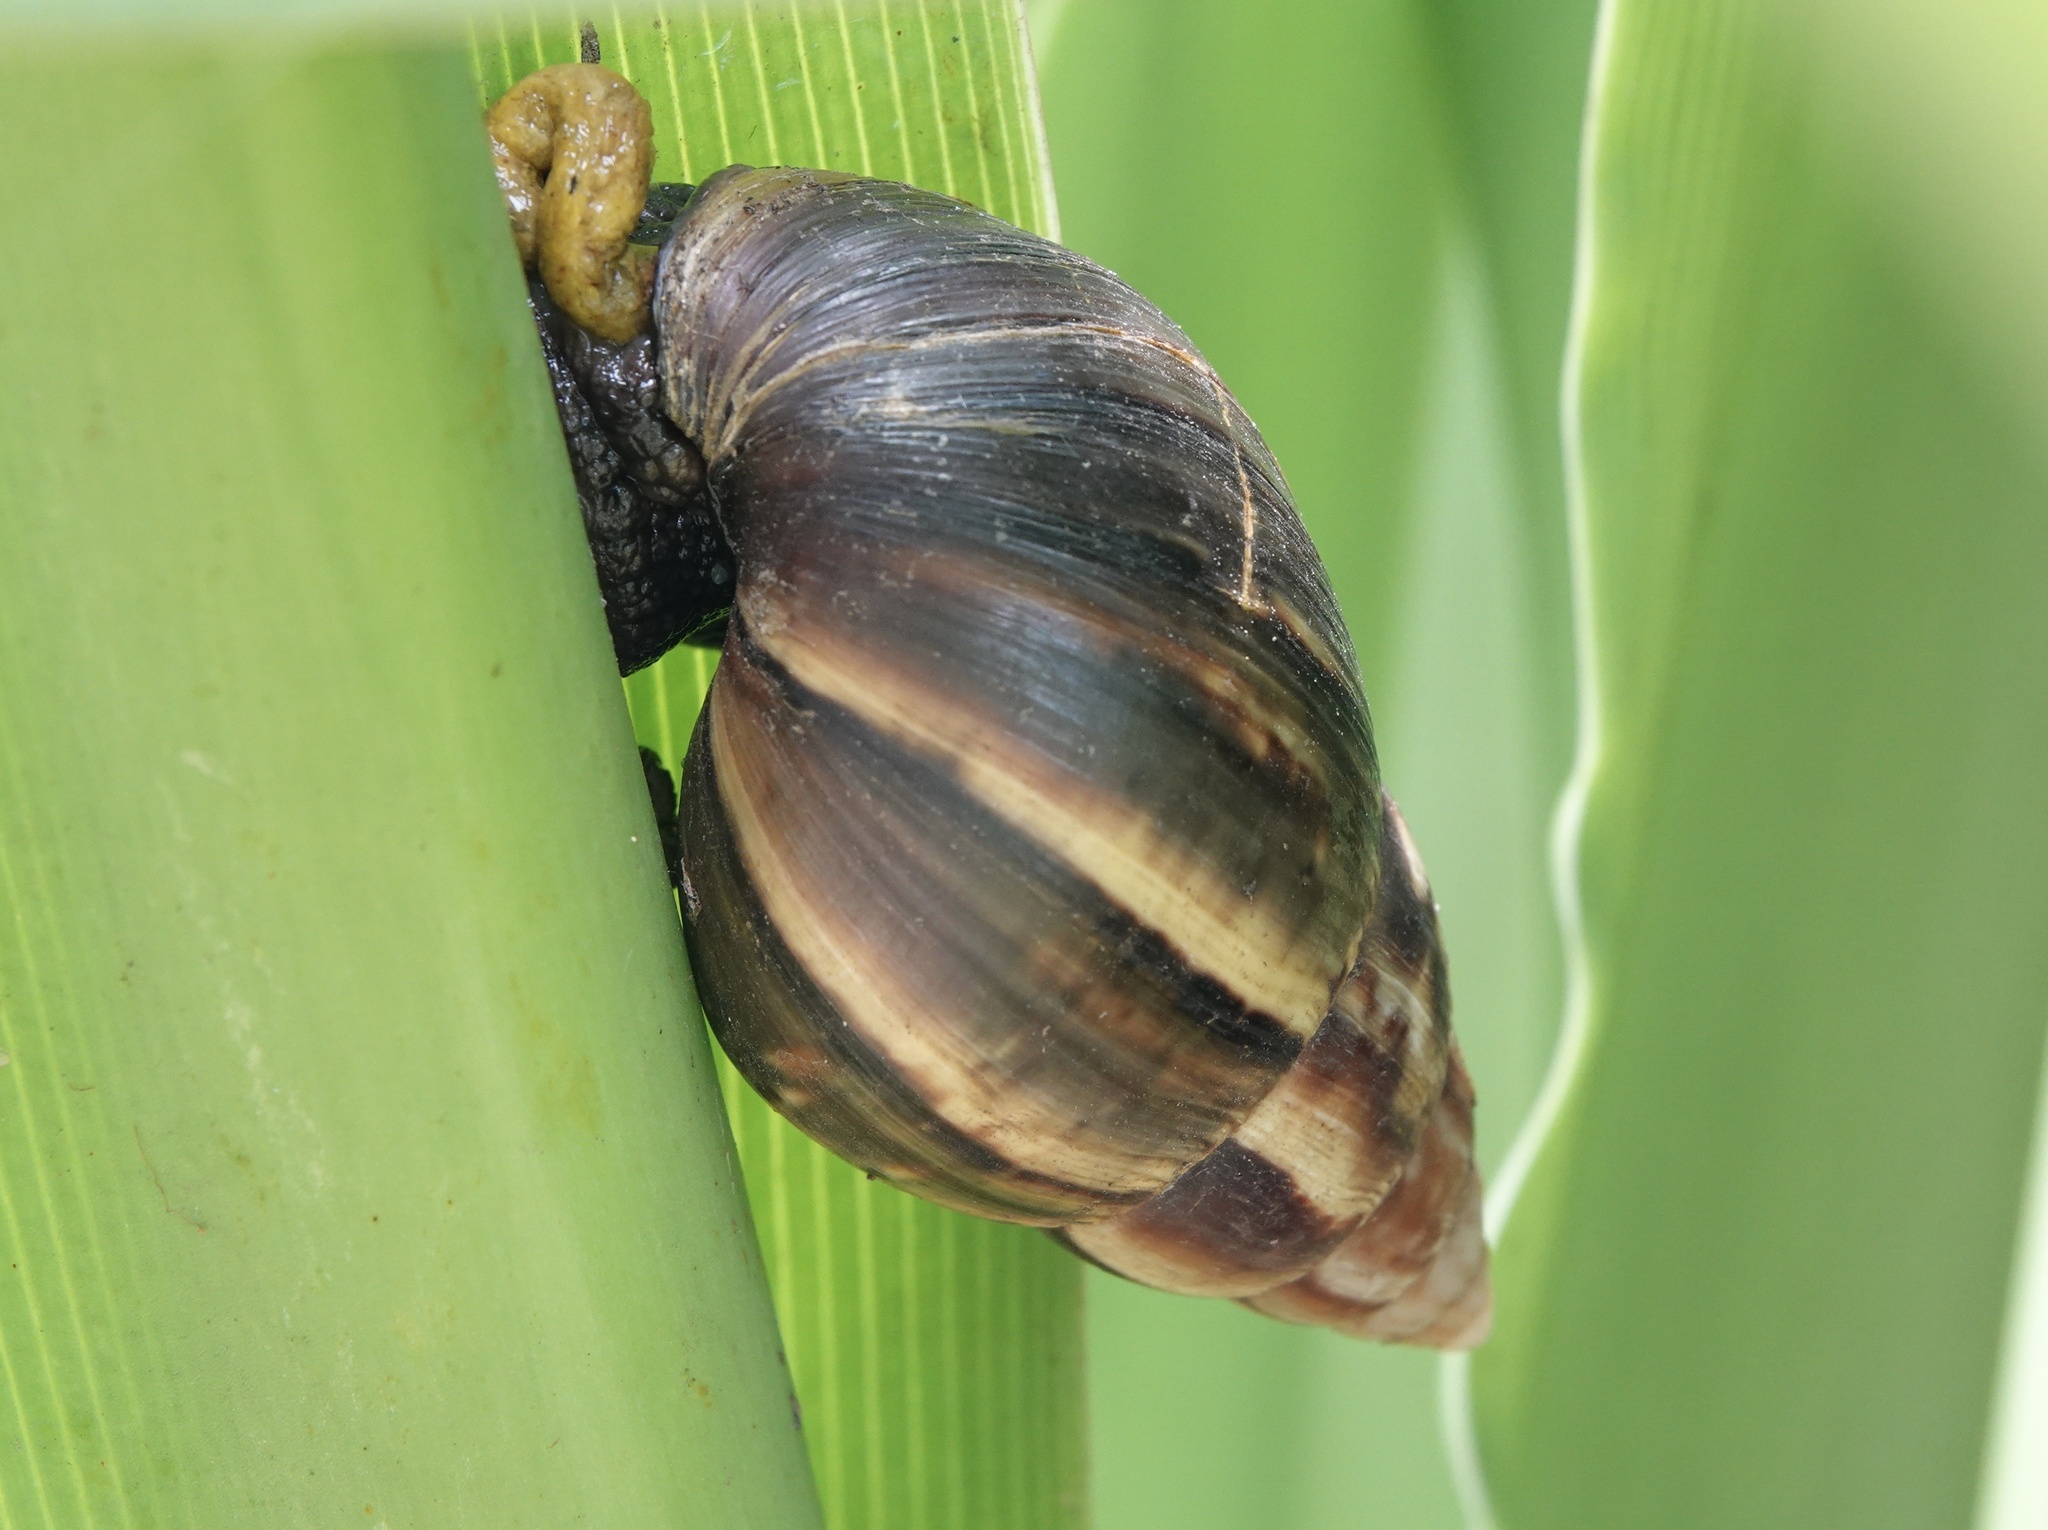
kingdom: Animalia
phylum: Mollusca
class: Gastropoda
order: Stylommatophora
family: Achatinidae
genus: Lissachatina
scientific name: Lissachatina fulica
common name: Giant african snail
